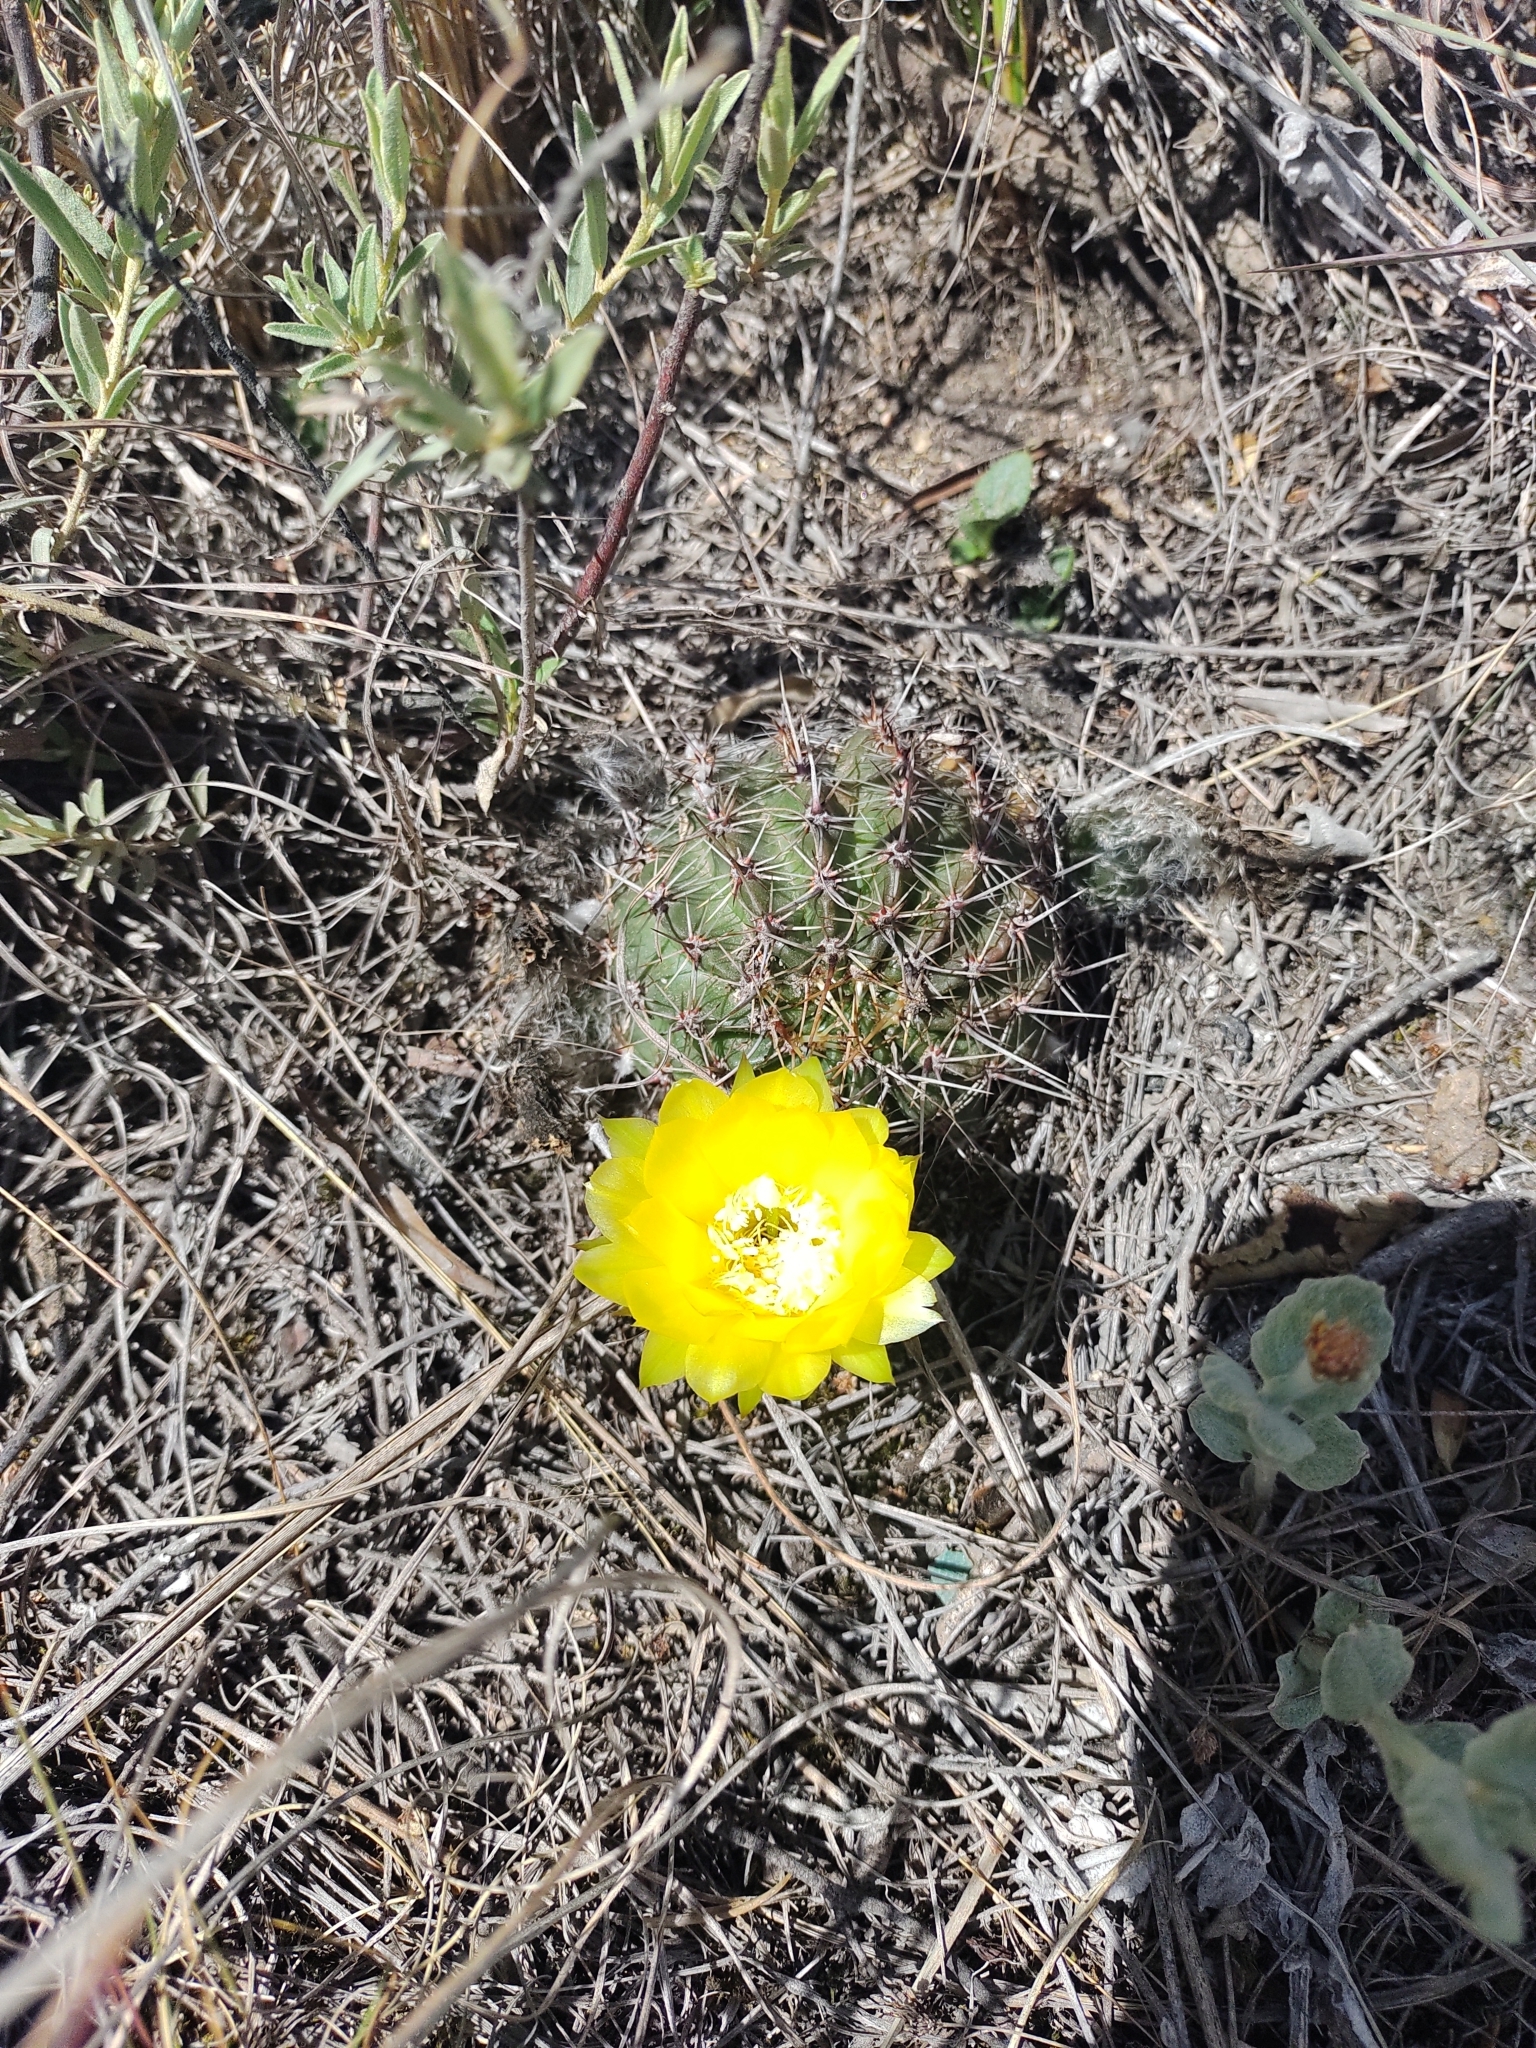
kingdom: Plantae
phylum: Tracheophyta
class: Magnoliopsida
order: Caryophyllales
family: Cactaceae
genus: Echinopsis
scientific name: Echinopsis aurea
